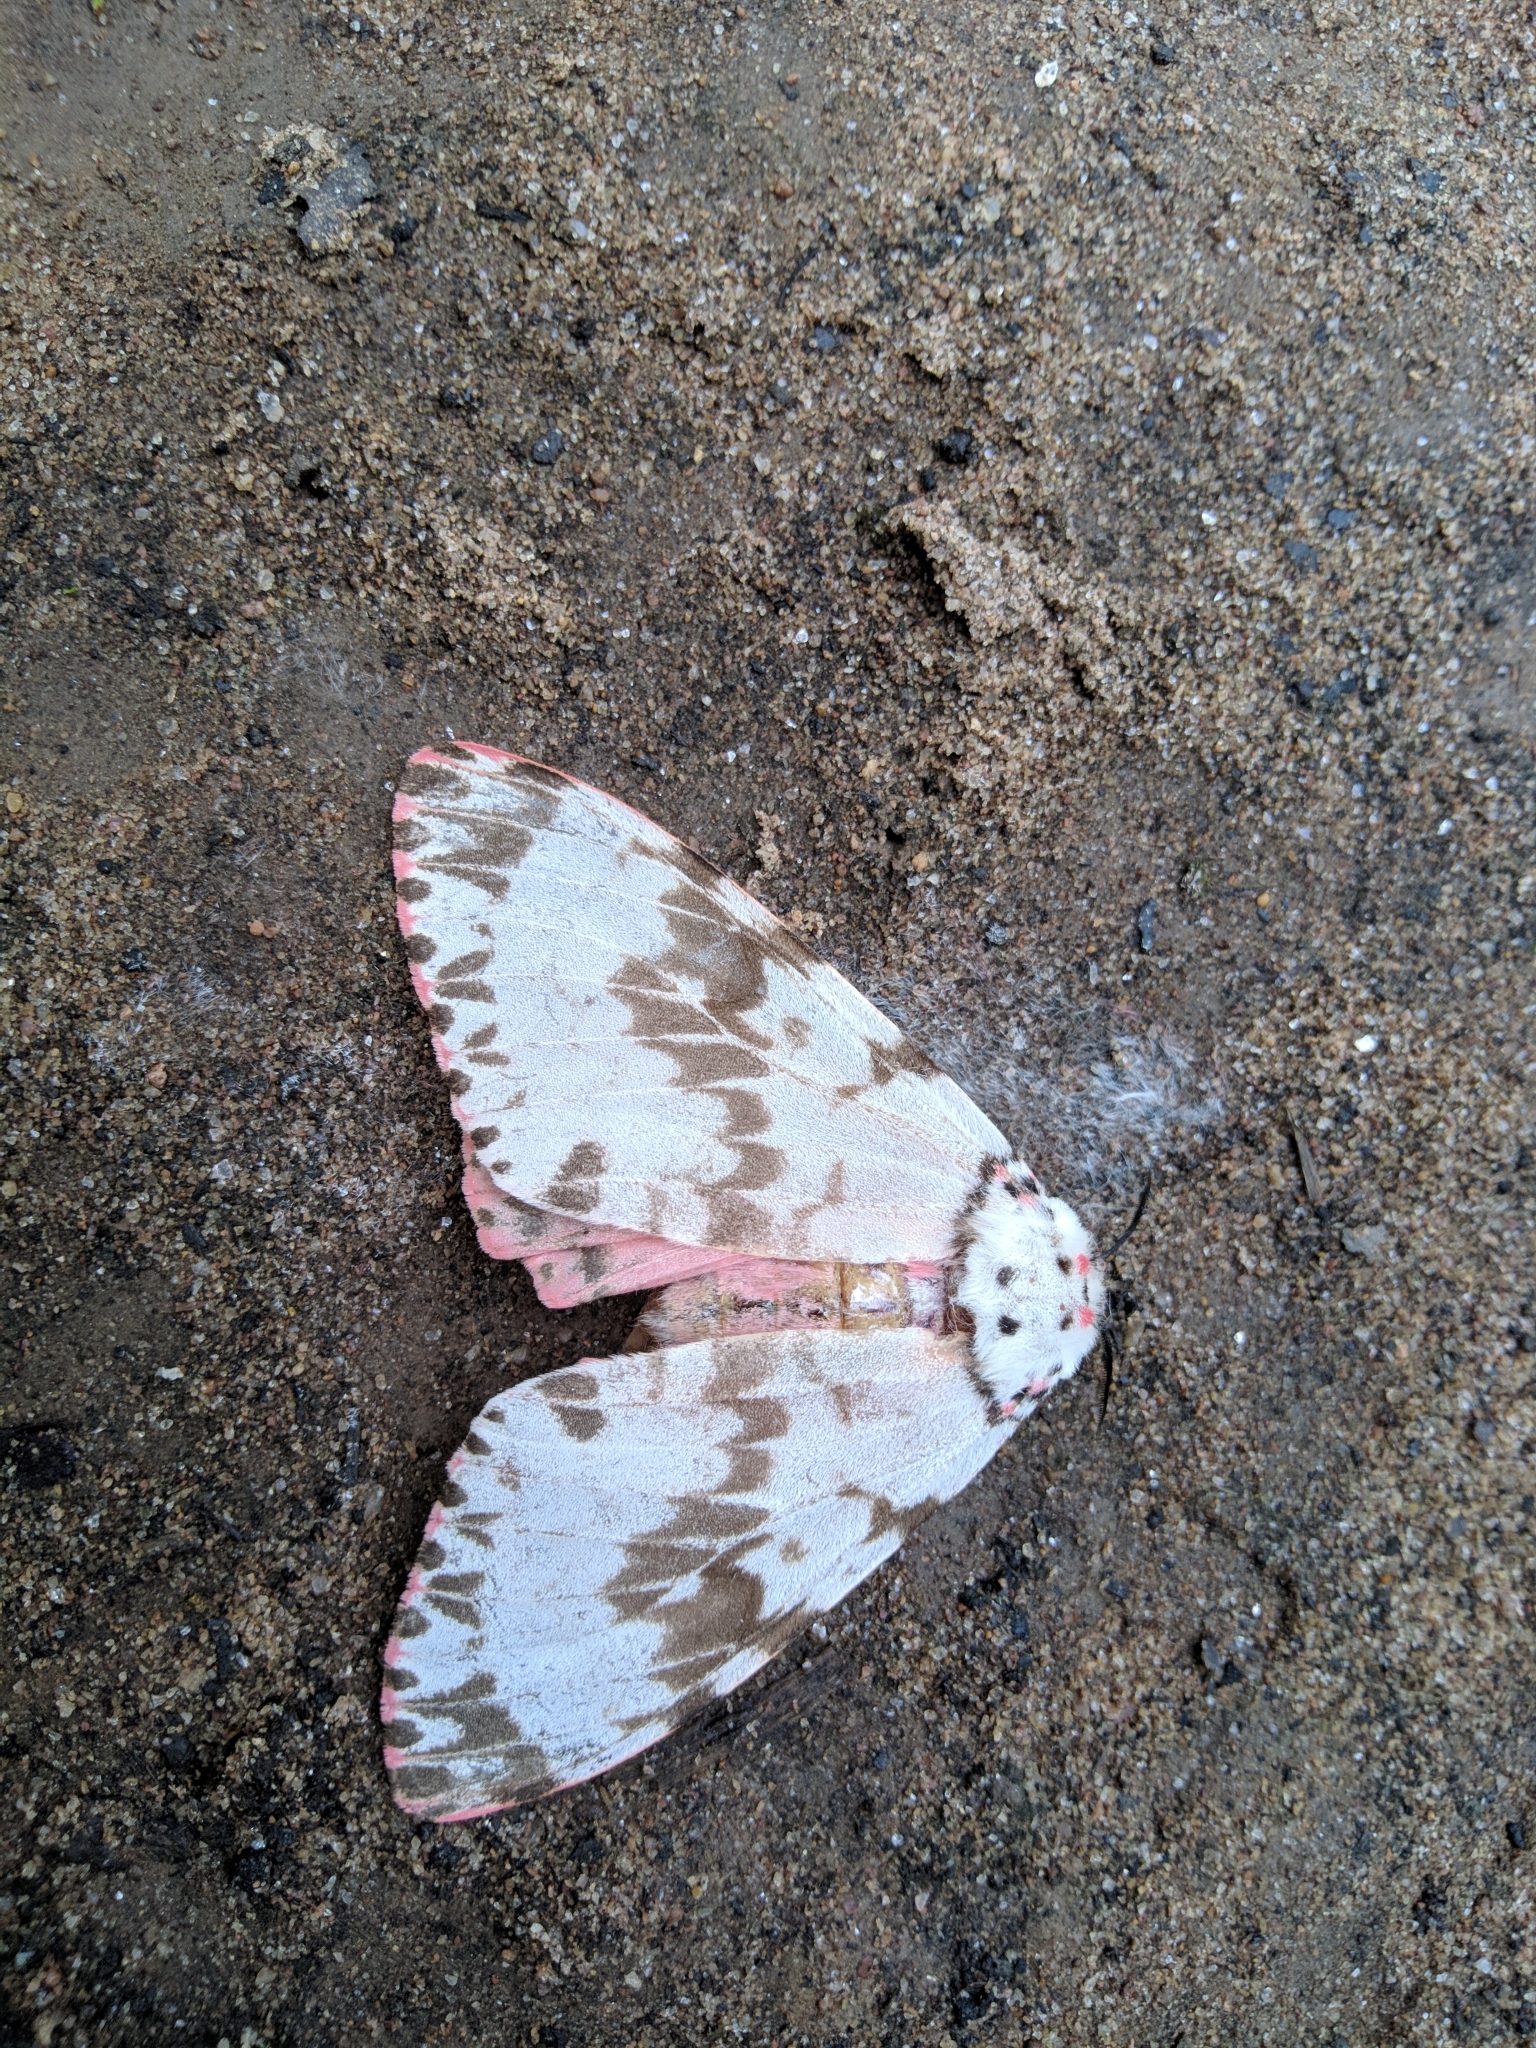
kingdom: Animalia
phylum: Arthropoda
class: Insecta
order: Lepidoptera
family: Erebidae
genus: Lymantria
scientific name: Lymantria mathura
